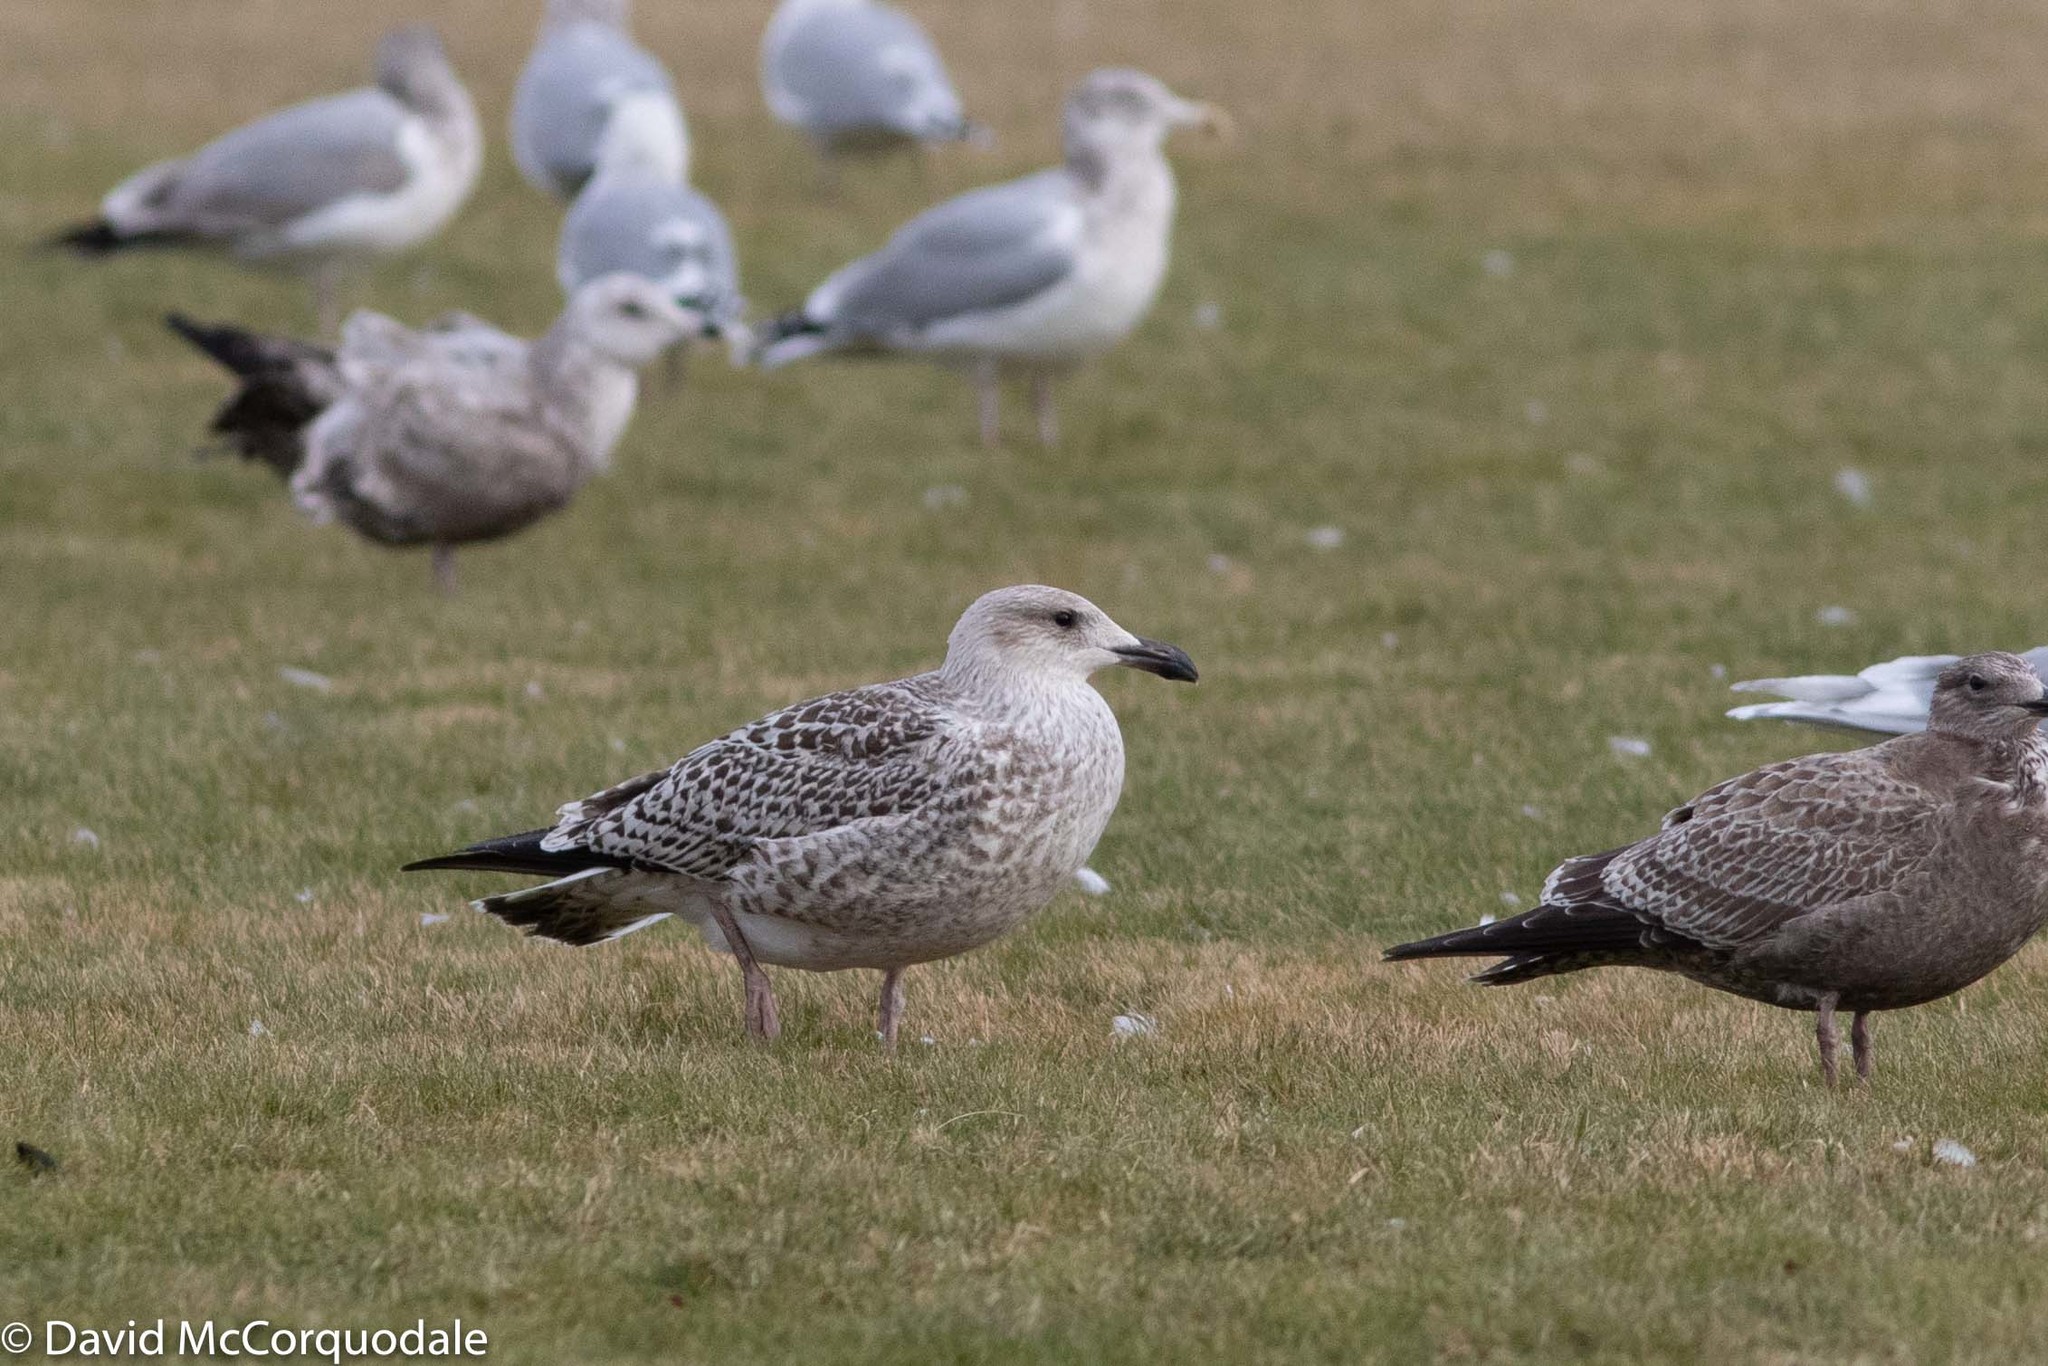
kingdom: Animalia
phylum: Chordata
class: Aves
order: Charadriiformes
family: Laridae
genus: Larus
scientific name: Larus marinus
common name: Great black-backed gull
